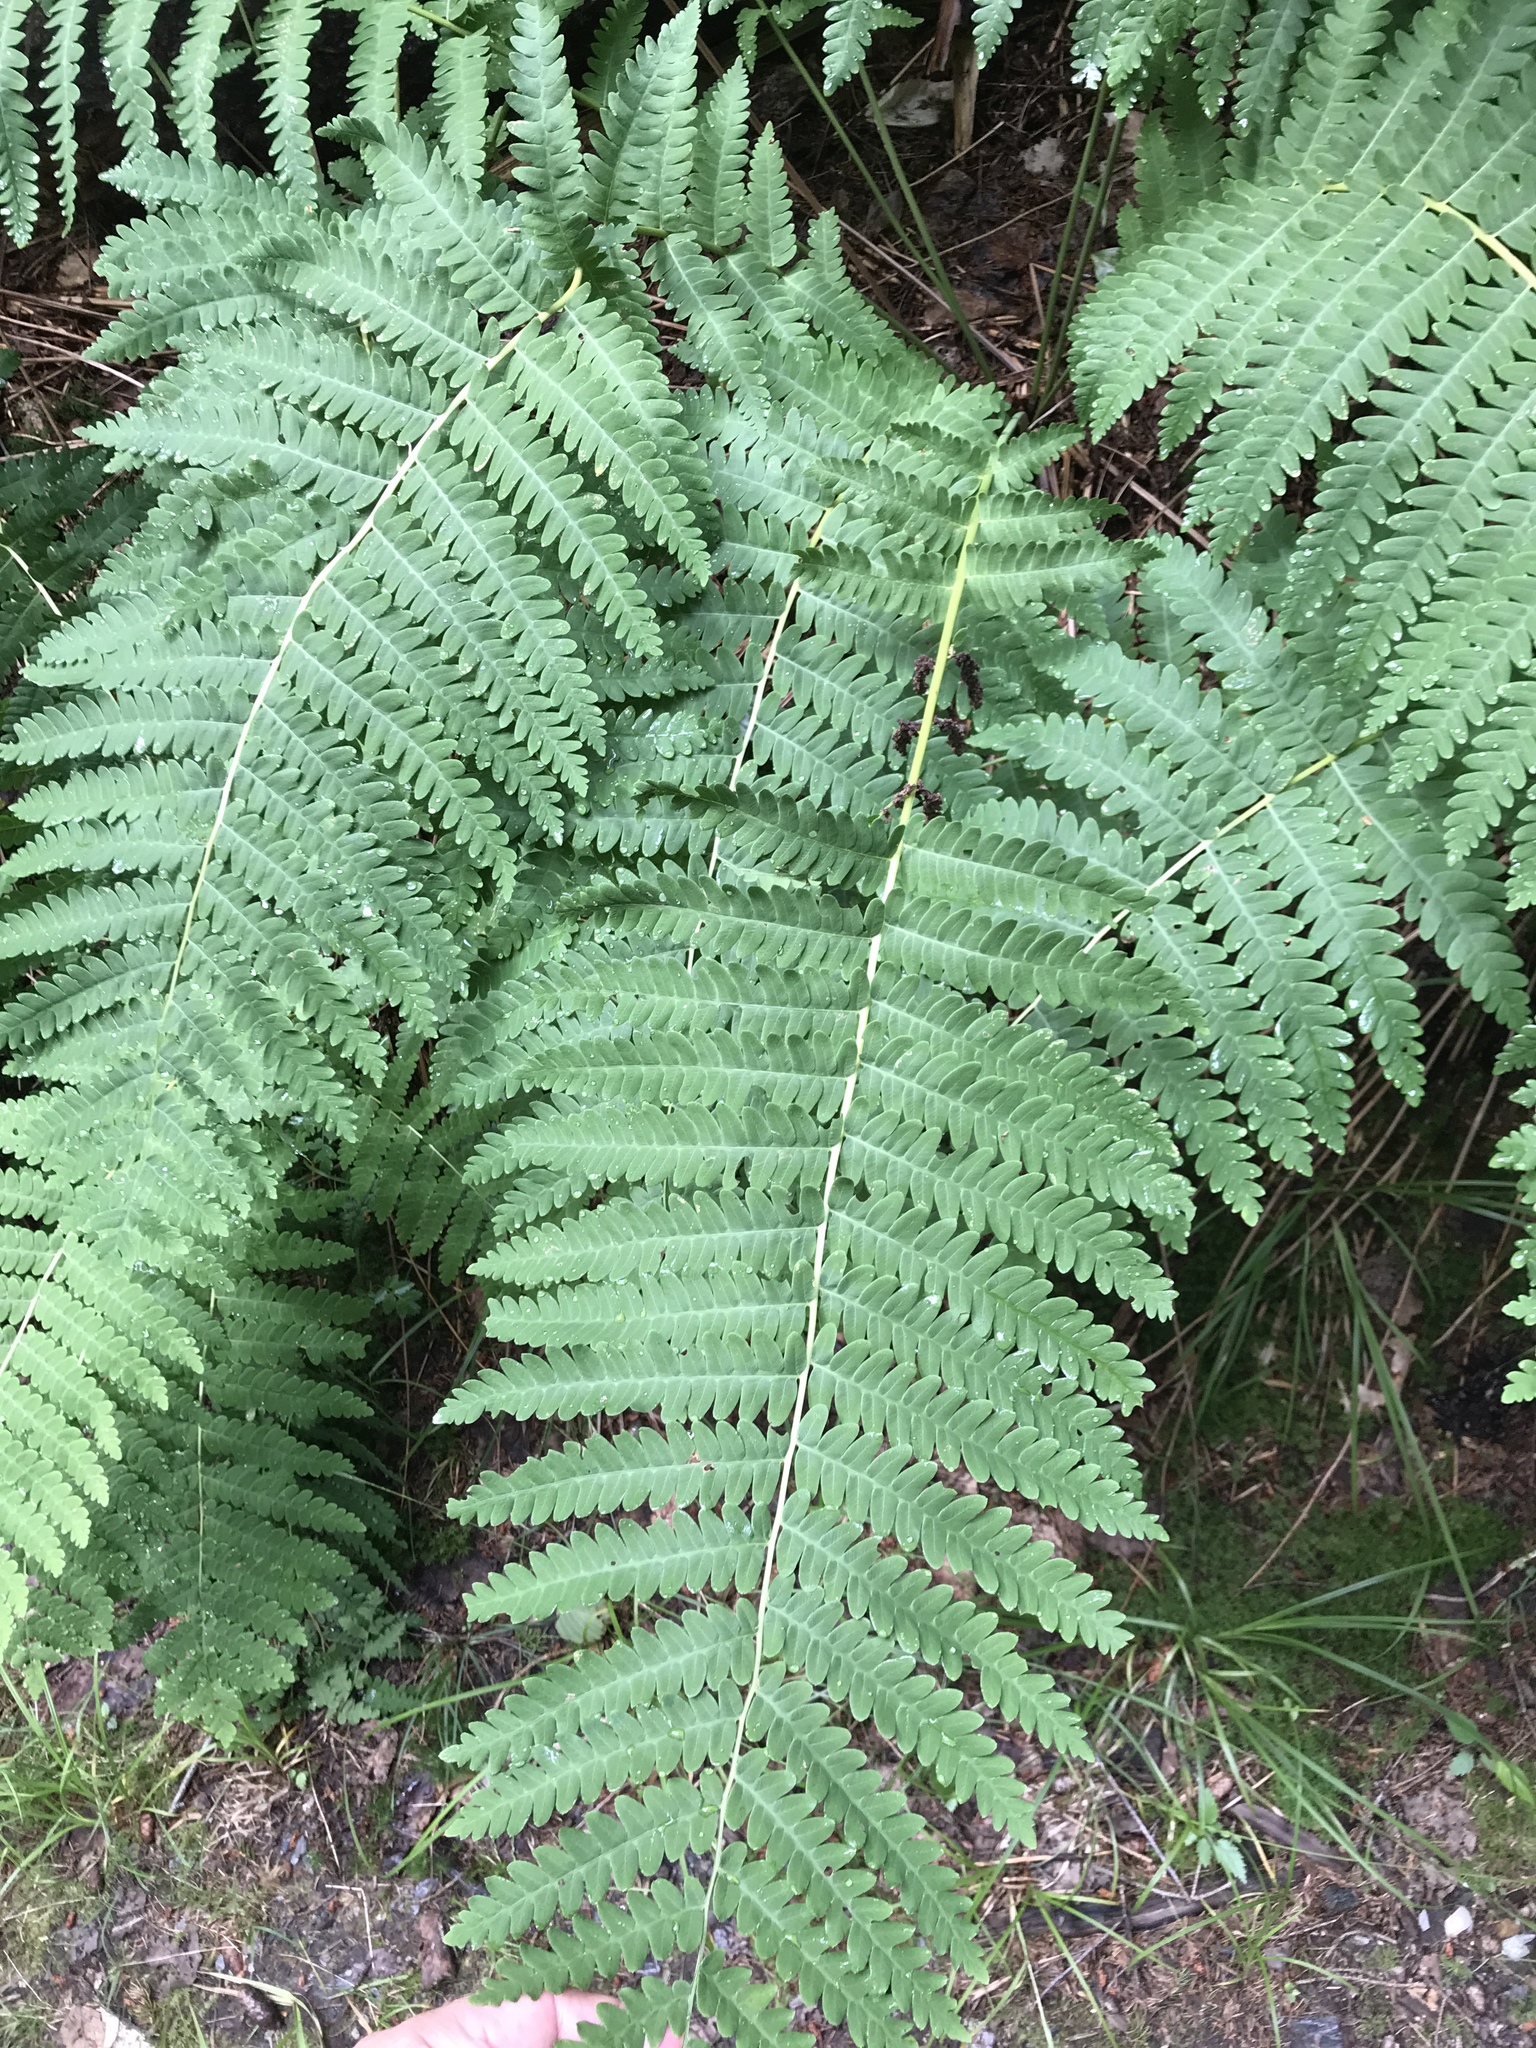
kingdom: Plantae
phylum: Tracheophyta
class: Polypodiopsida
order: Osmundales
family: Osmundaceae
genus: Claytosmunda
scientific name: Claytosmunda claytoniana
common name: Clayton's fern
